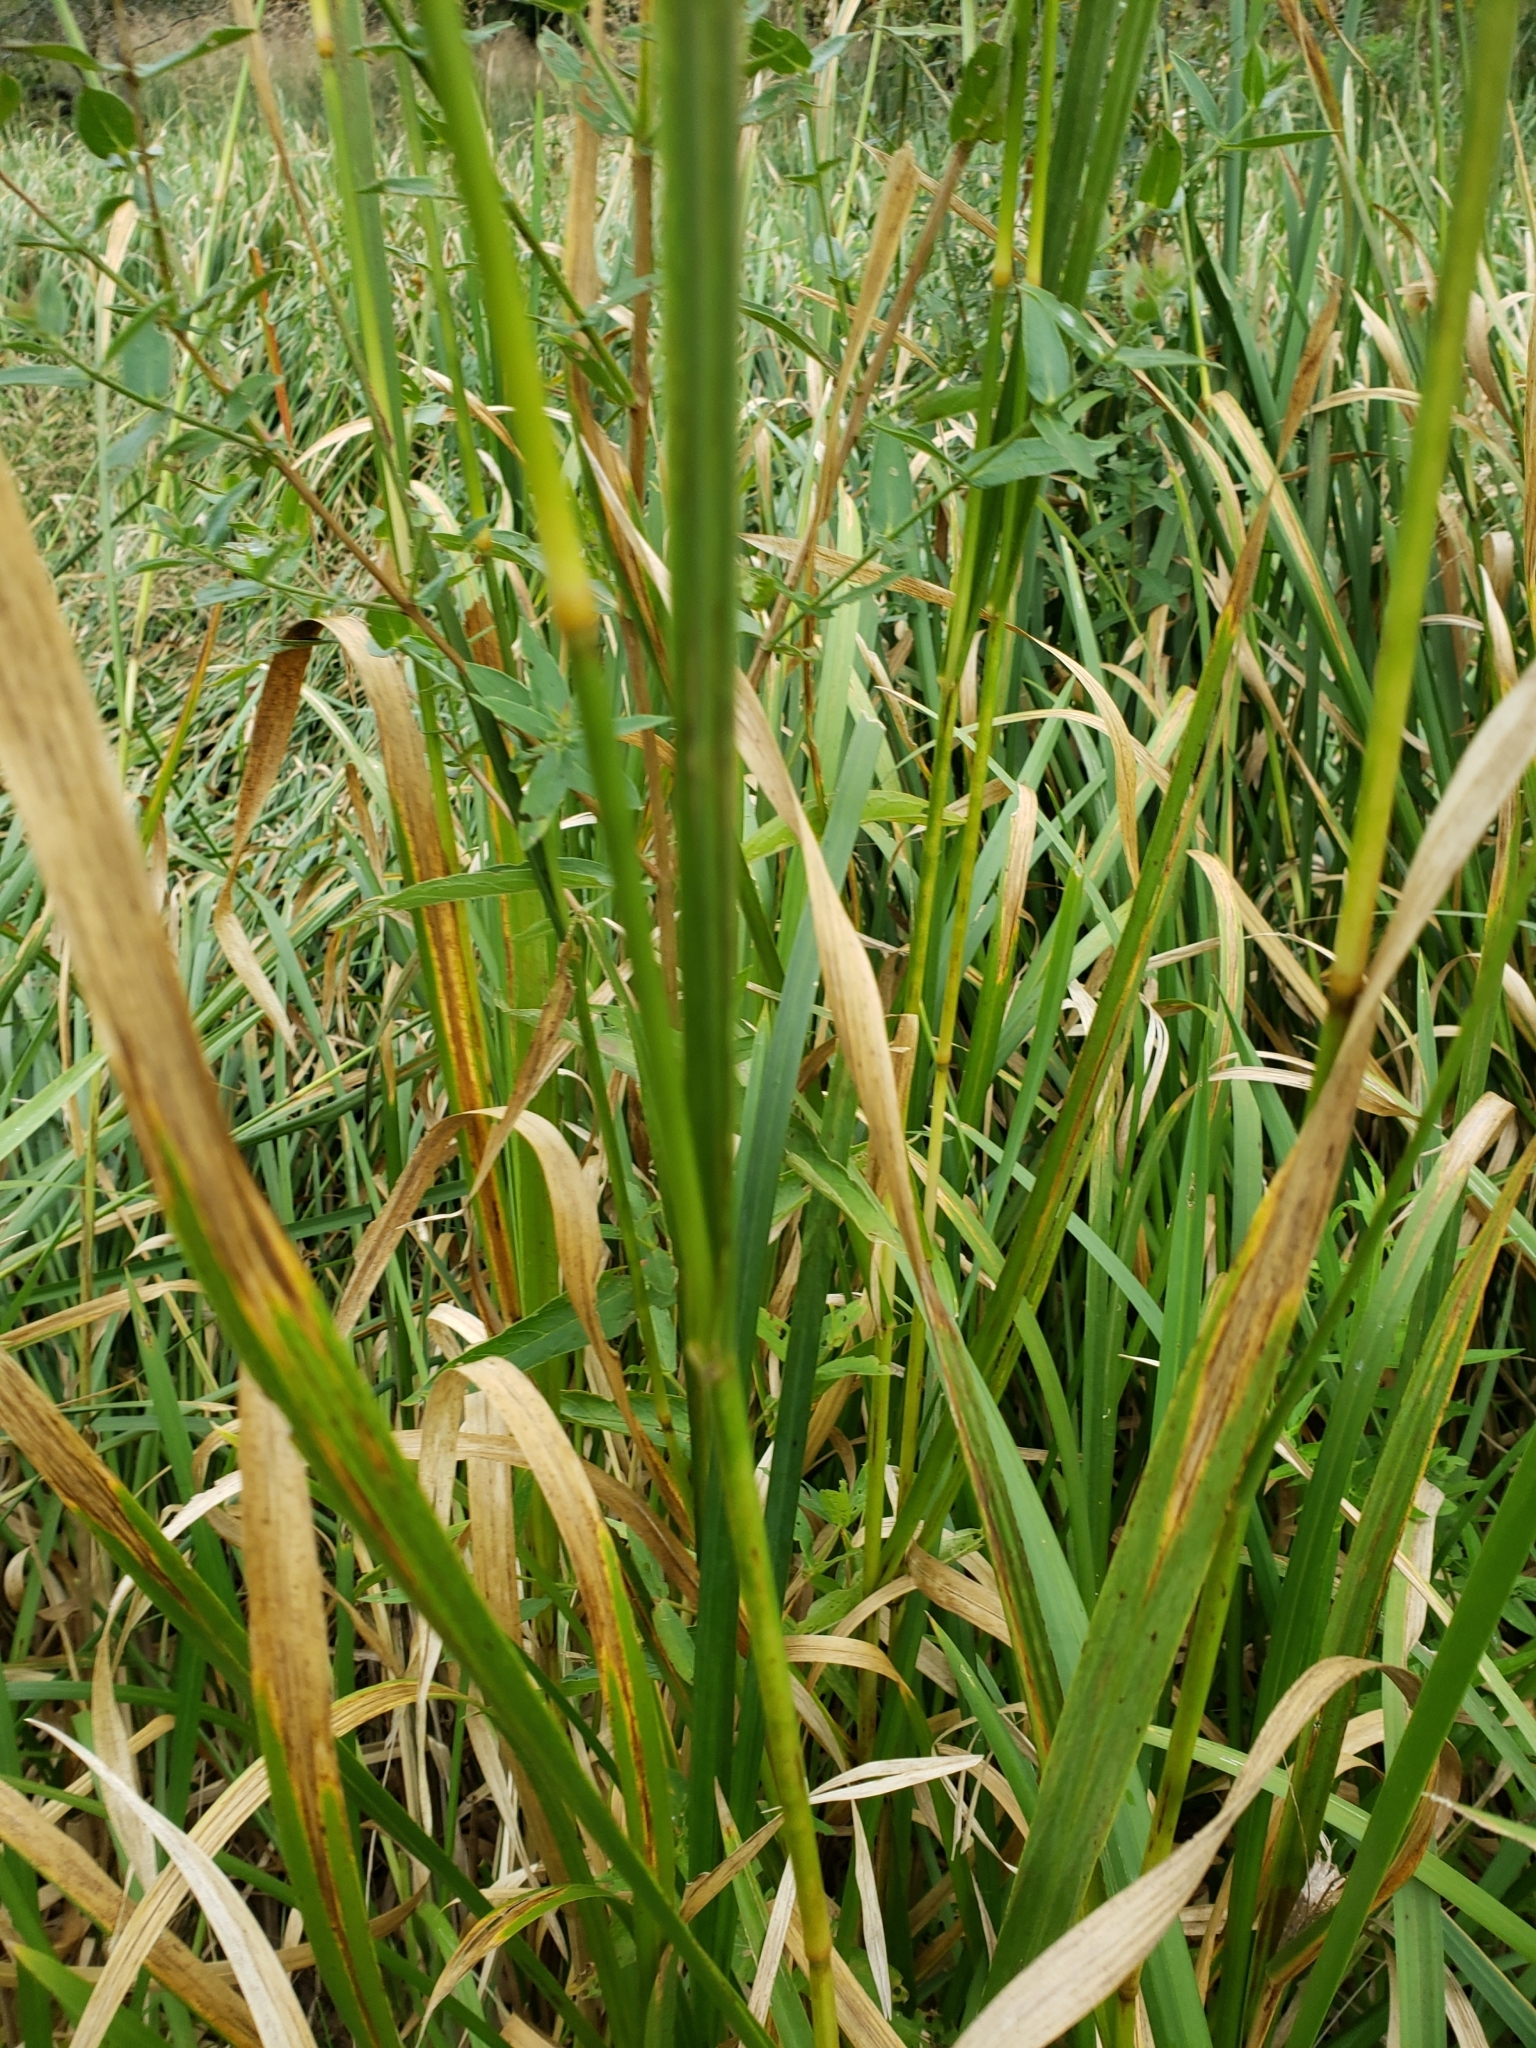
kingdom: Plantae
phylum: Tracheophyta
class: Liliopsida
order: Poales
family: Poaceae
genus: Glyceria
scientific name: Glyceria maxima
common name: Reed mannagrass
